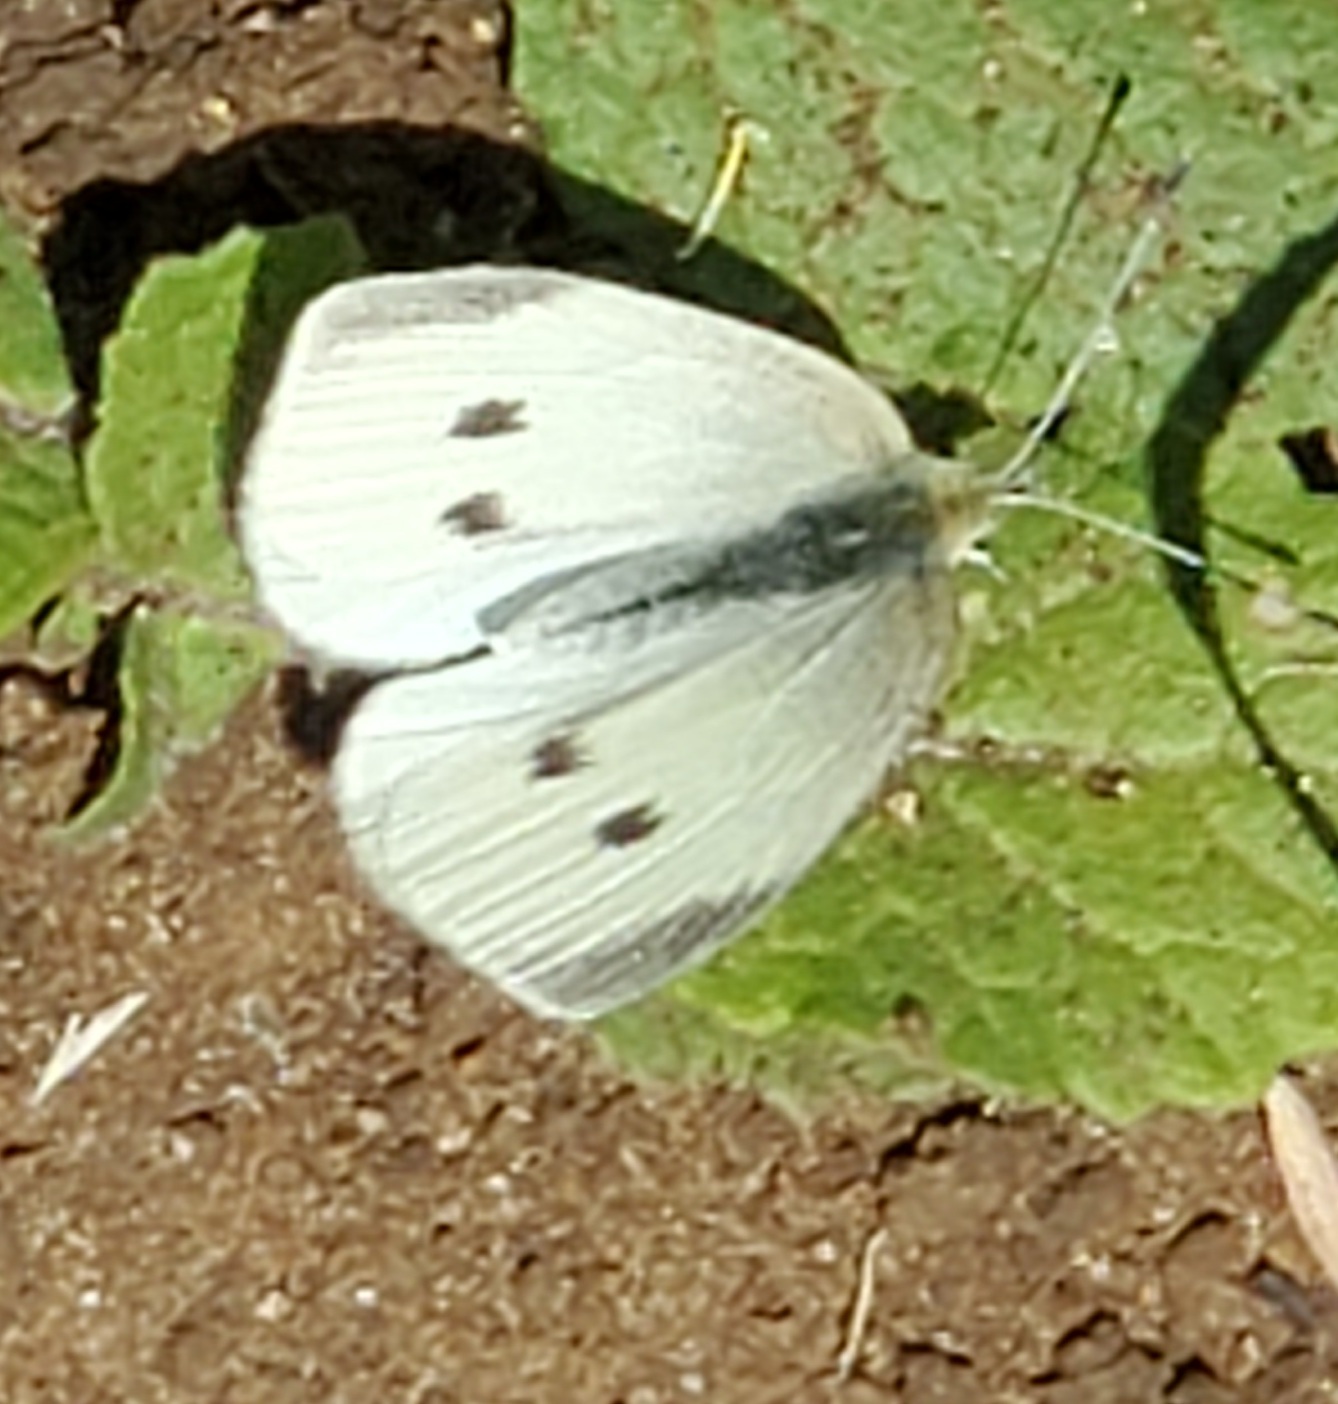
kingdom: Animalia
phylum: Arthropoda
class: Insecta
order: Lepidoptera
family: Pieridae
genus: Pieris
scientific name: Pieris rapae
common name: Small white
